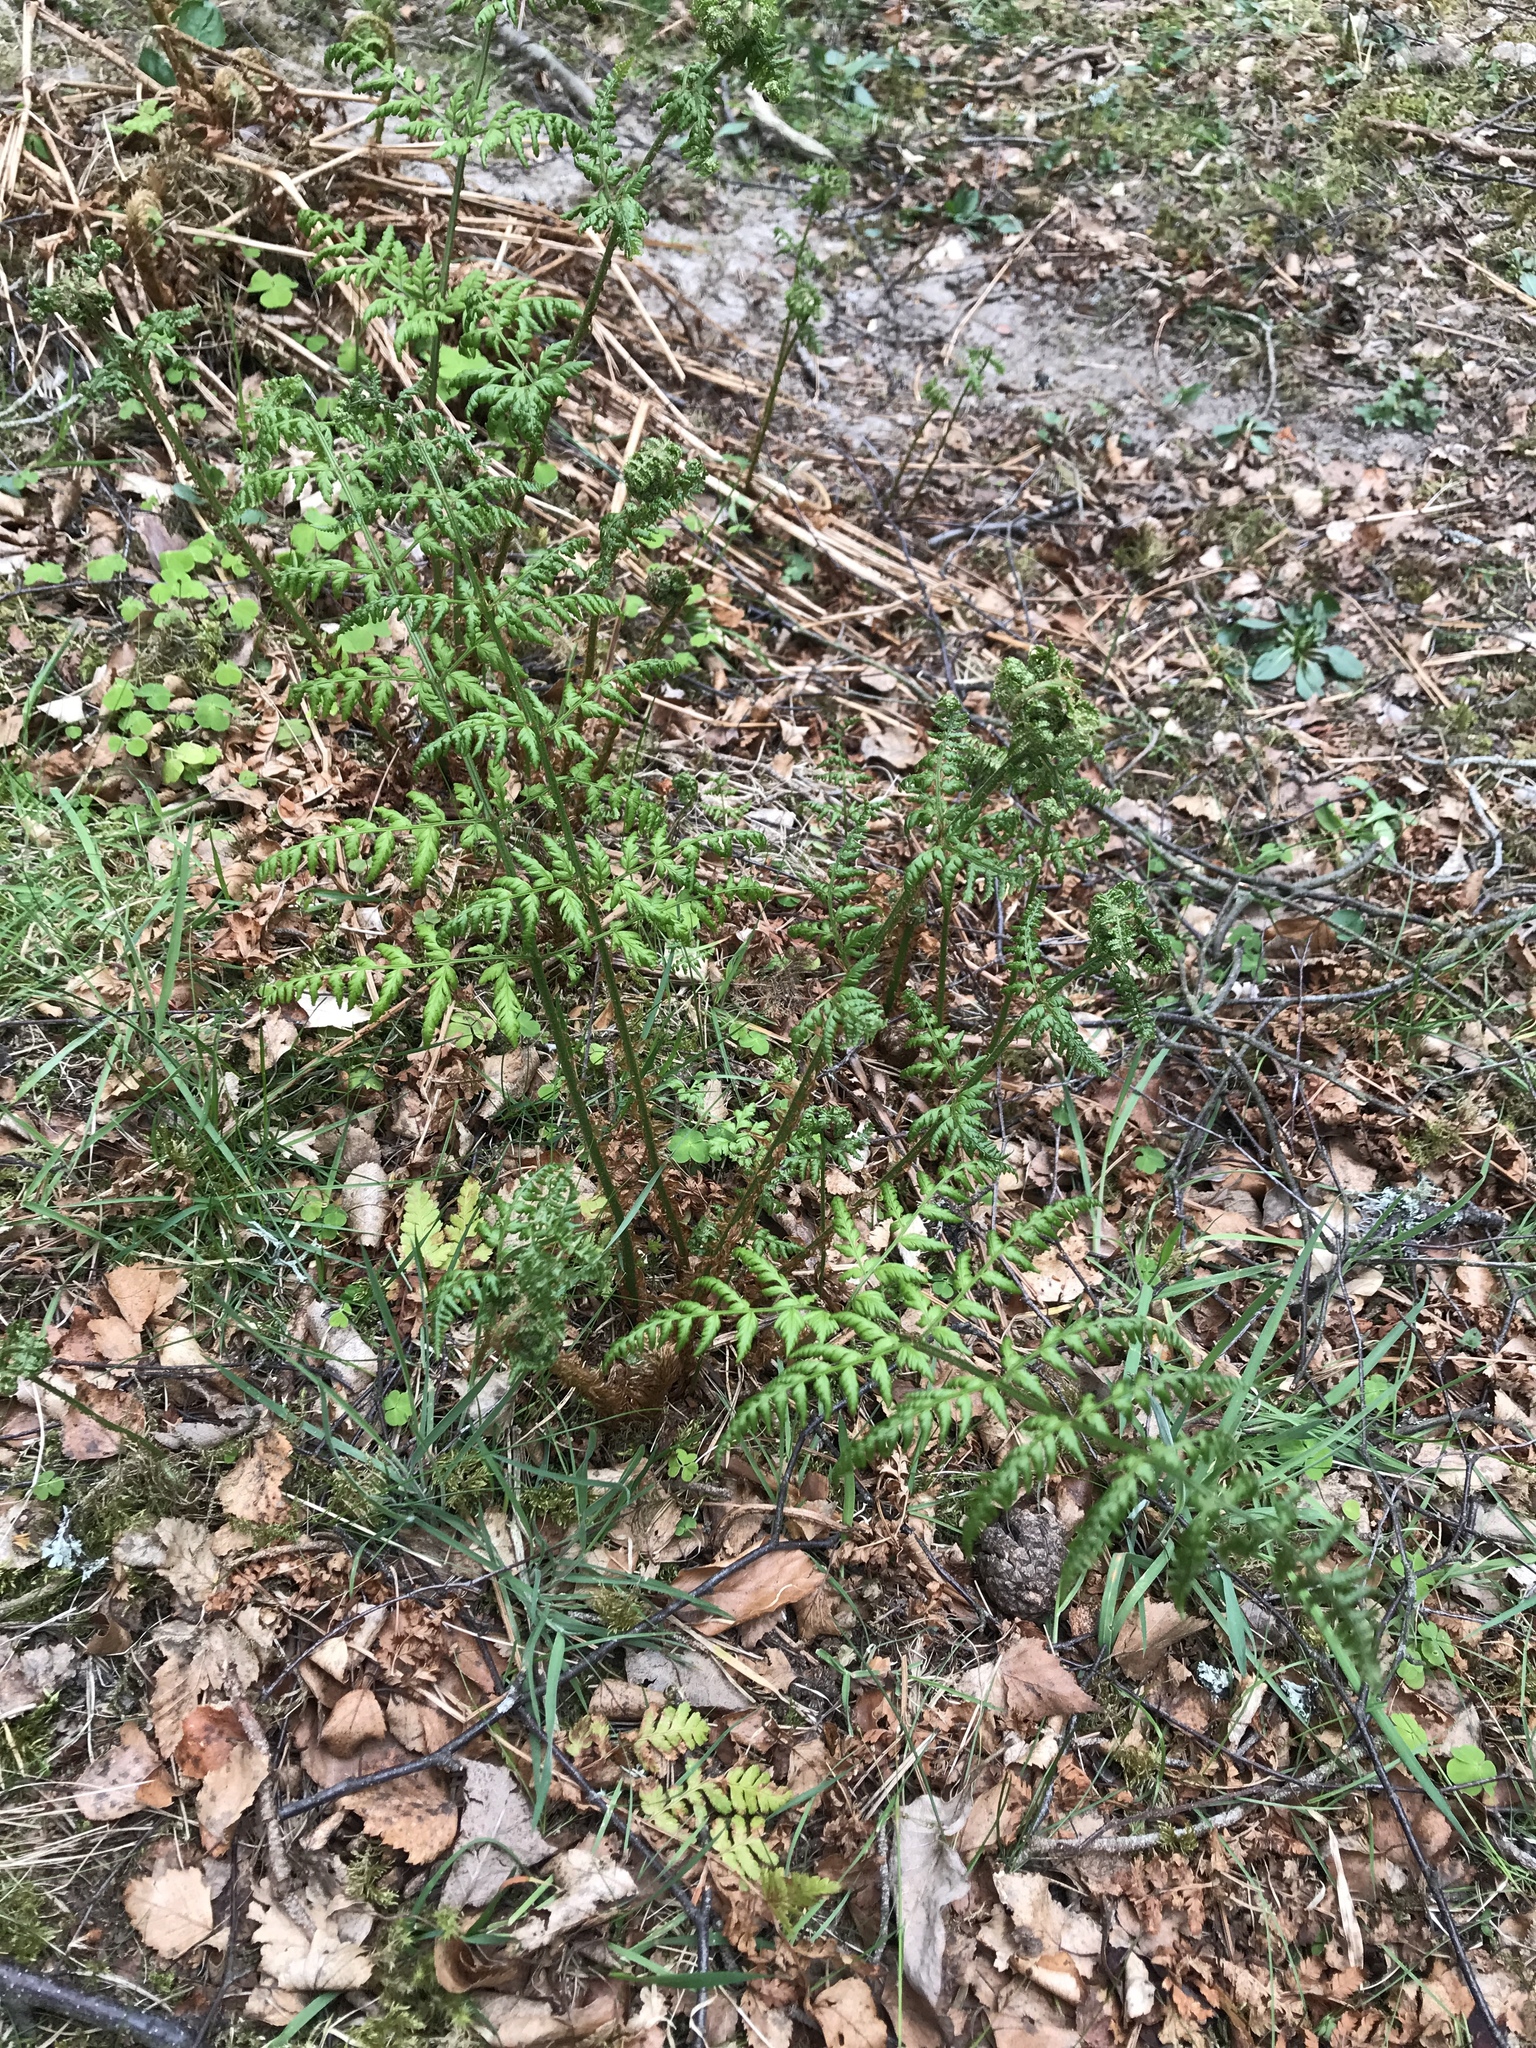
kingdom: Plantae
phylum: Tracheophyta
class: Polypodiopsida
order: Polypodiales
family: Dryopteridaceae
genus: Dryopteris
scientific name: Dryopteris dilatata
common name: Broad buckler-fern
